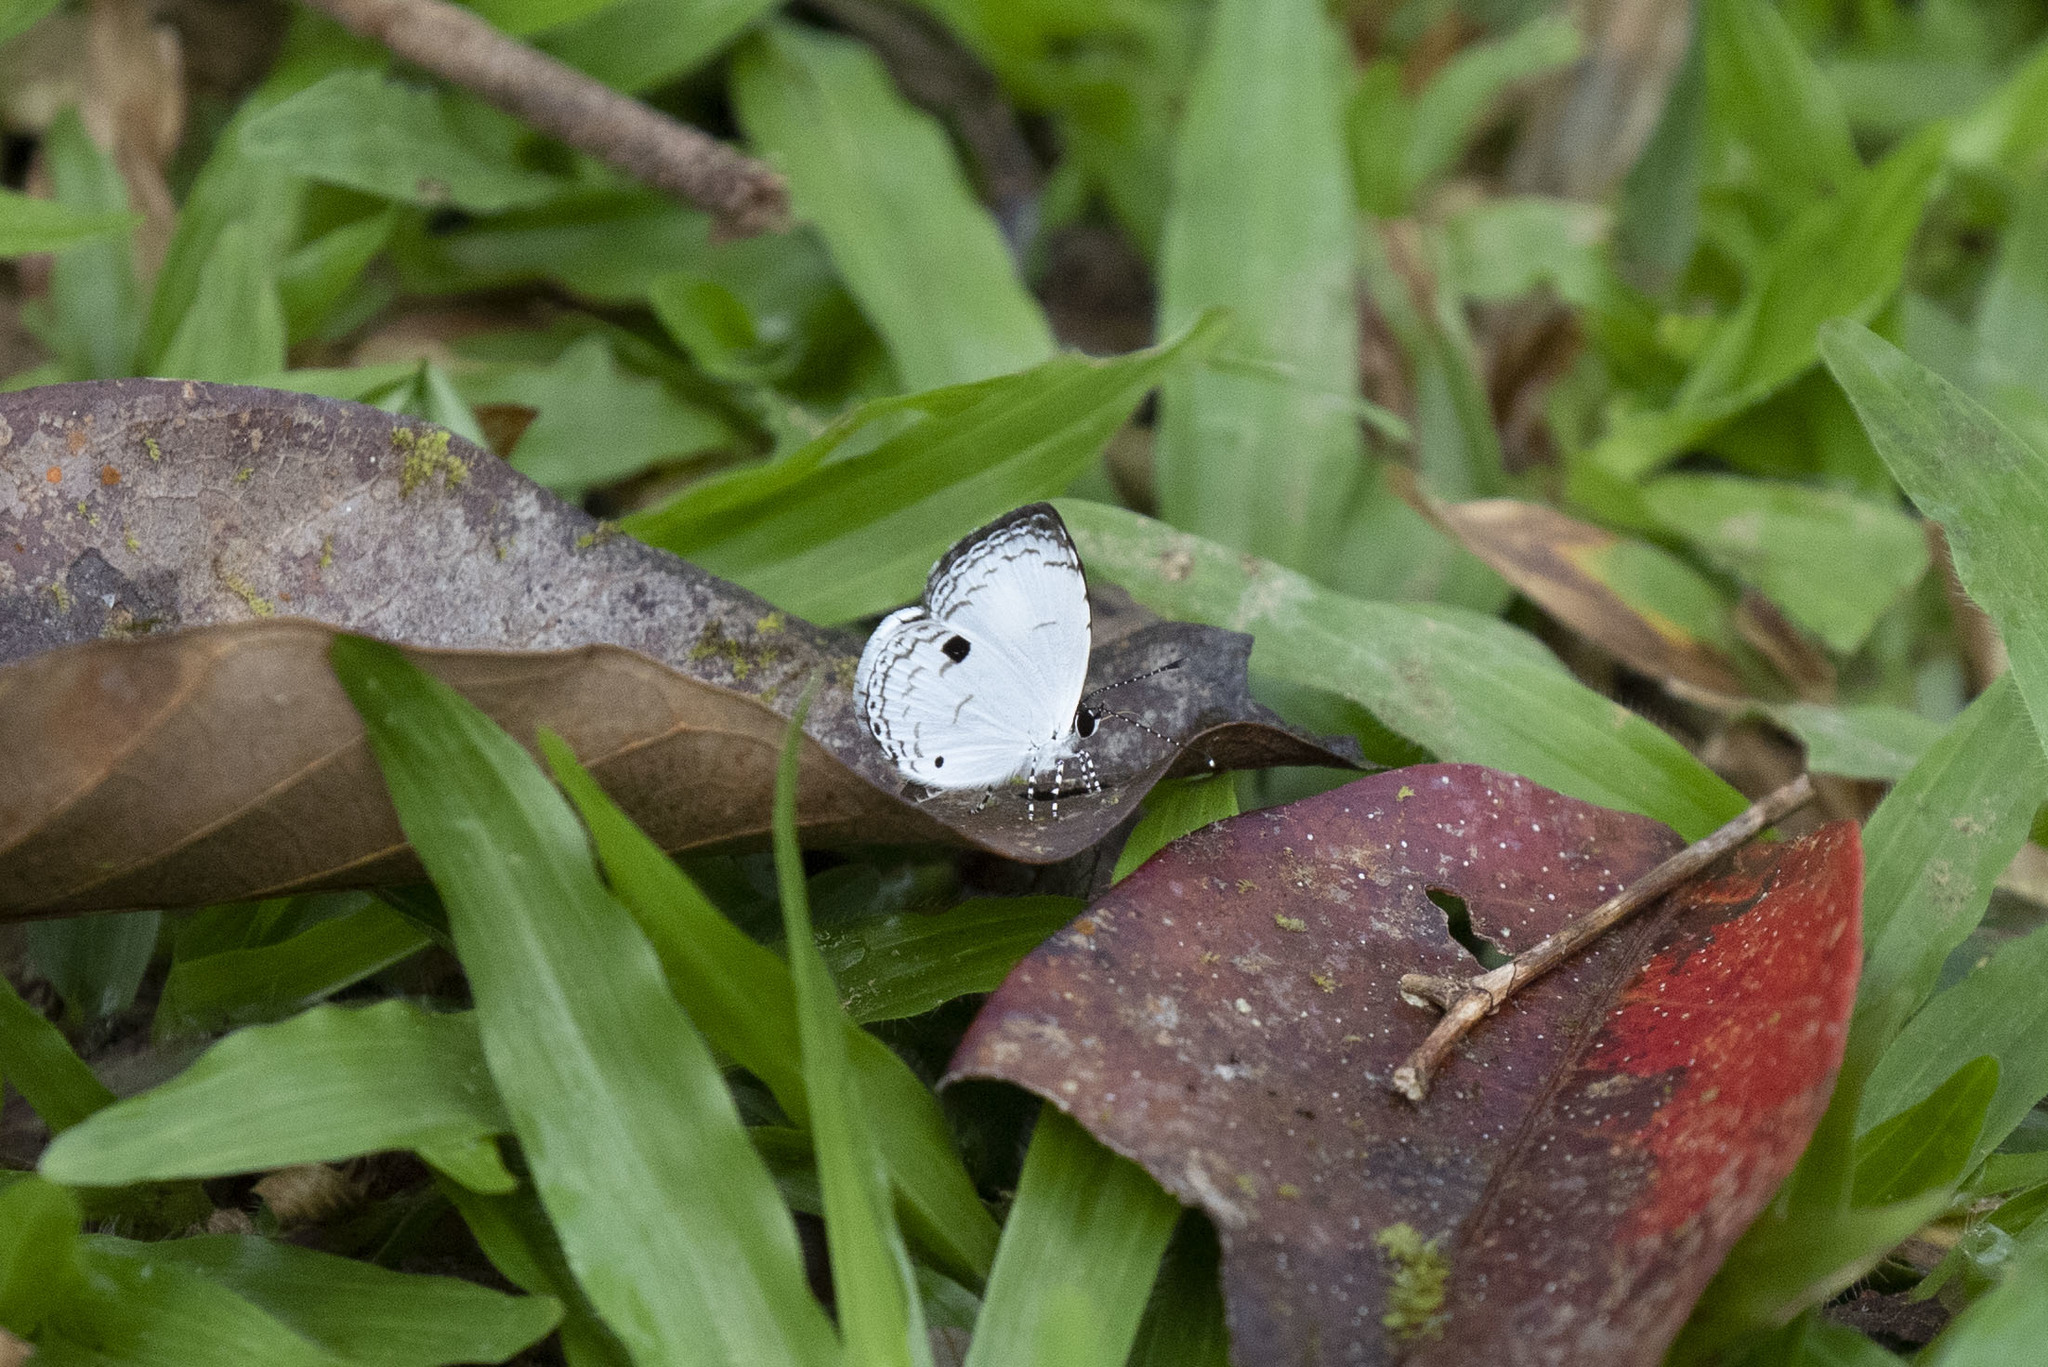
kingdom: Animalia
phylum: Arthropoda
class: Insecta
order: Lepidoptera
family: Lycaenidae
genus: Neopithecops
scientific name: Neopithecops zalmora
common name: Quaker
